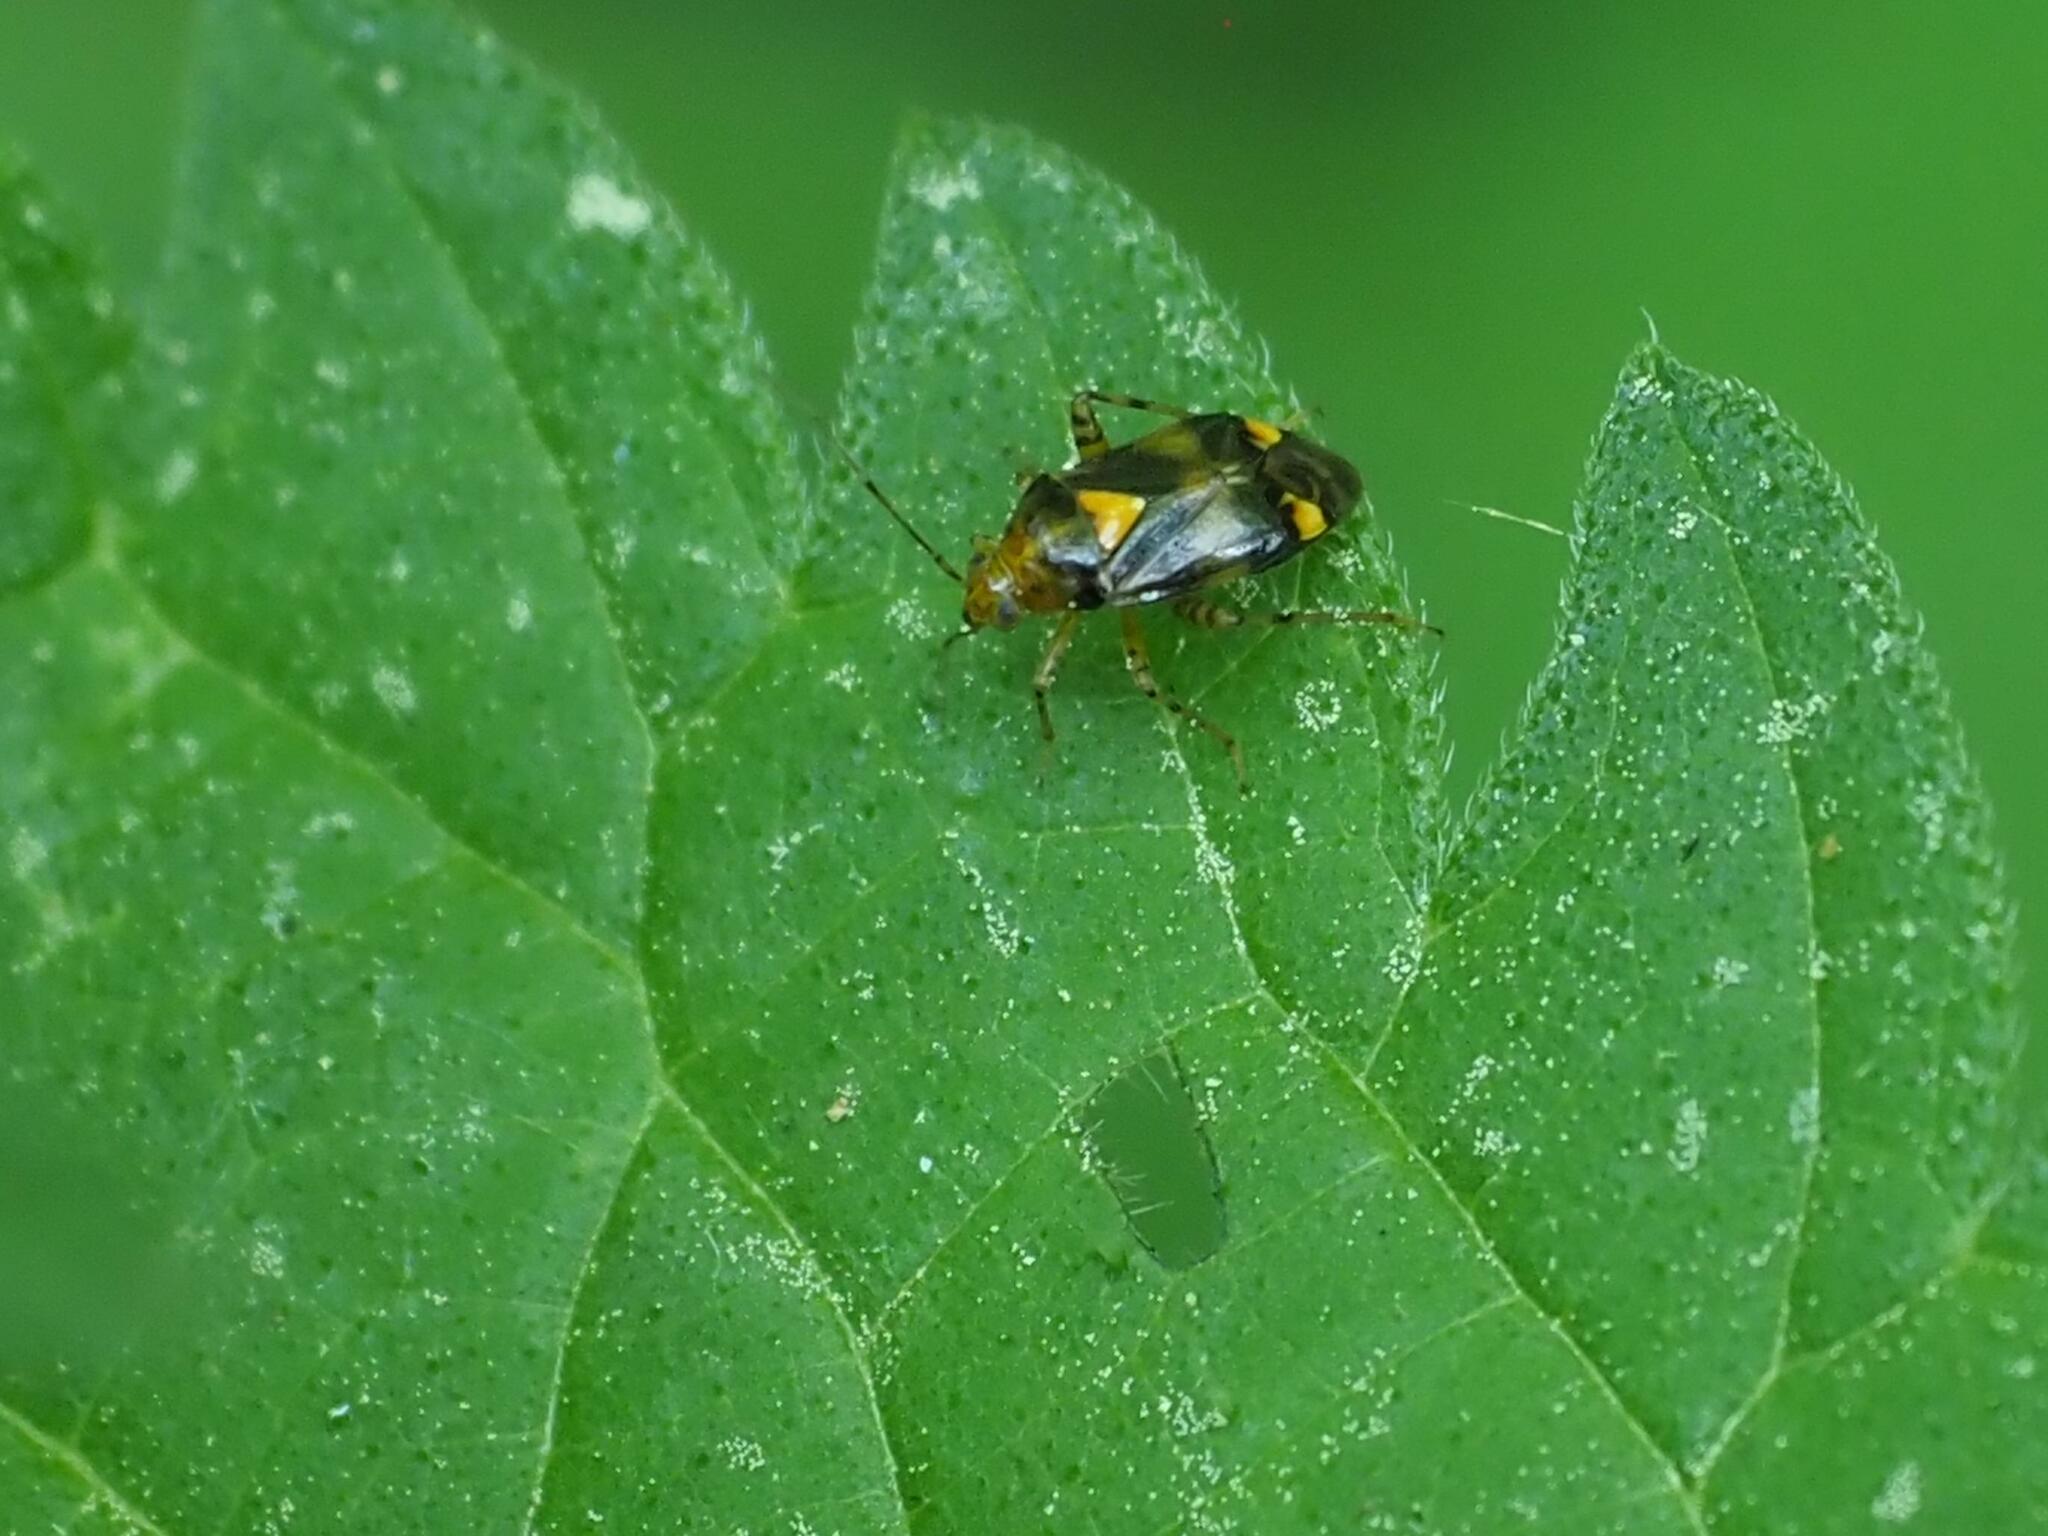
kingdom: Animalia
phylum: Arthropoda
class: Insecta
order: Hemiptera
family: Miridae
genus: Liocoris
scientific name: Liocoris tripustulatus
